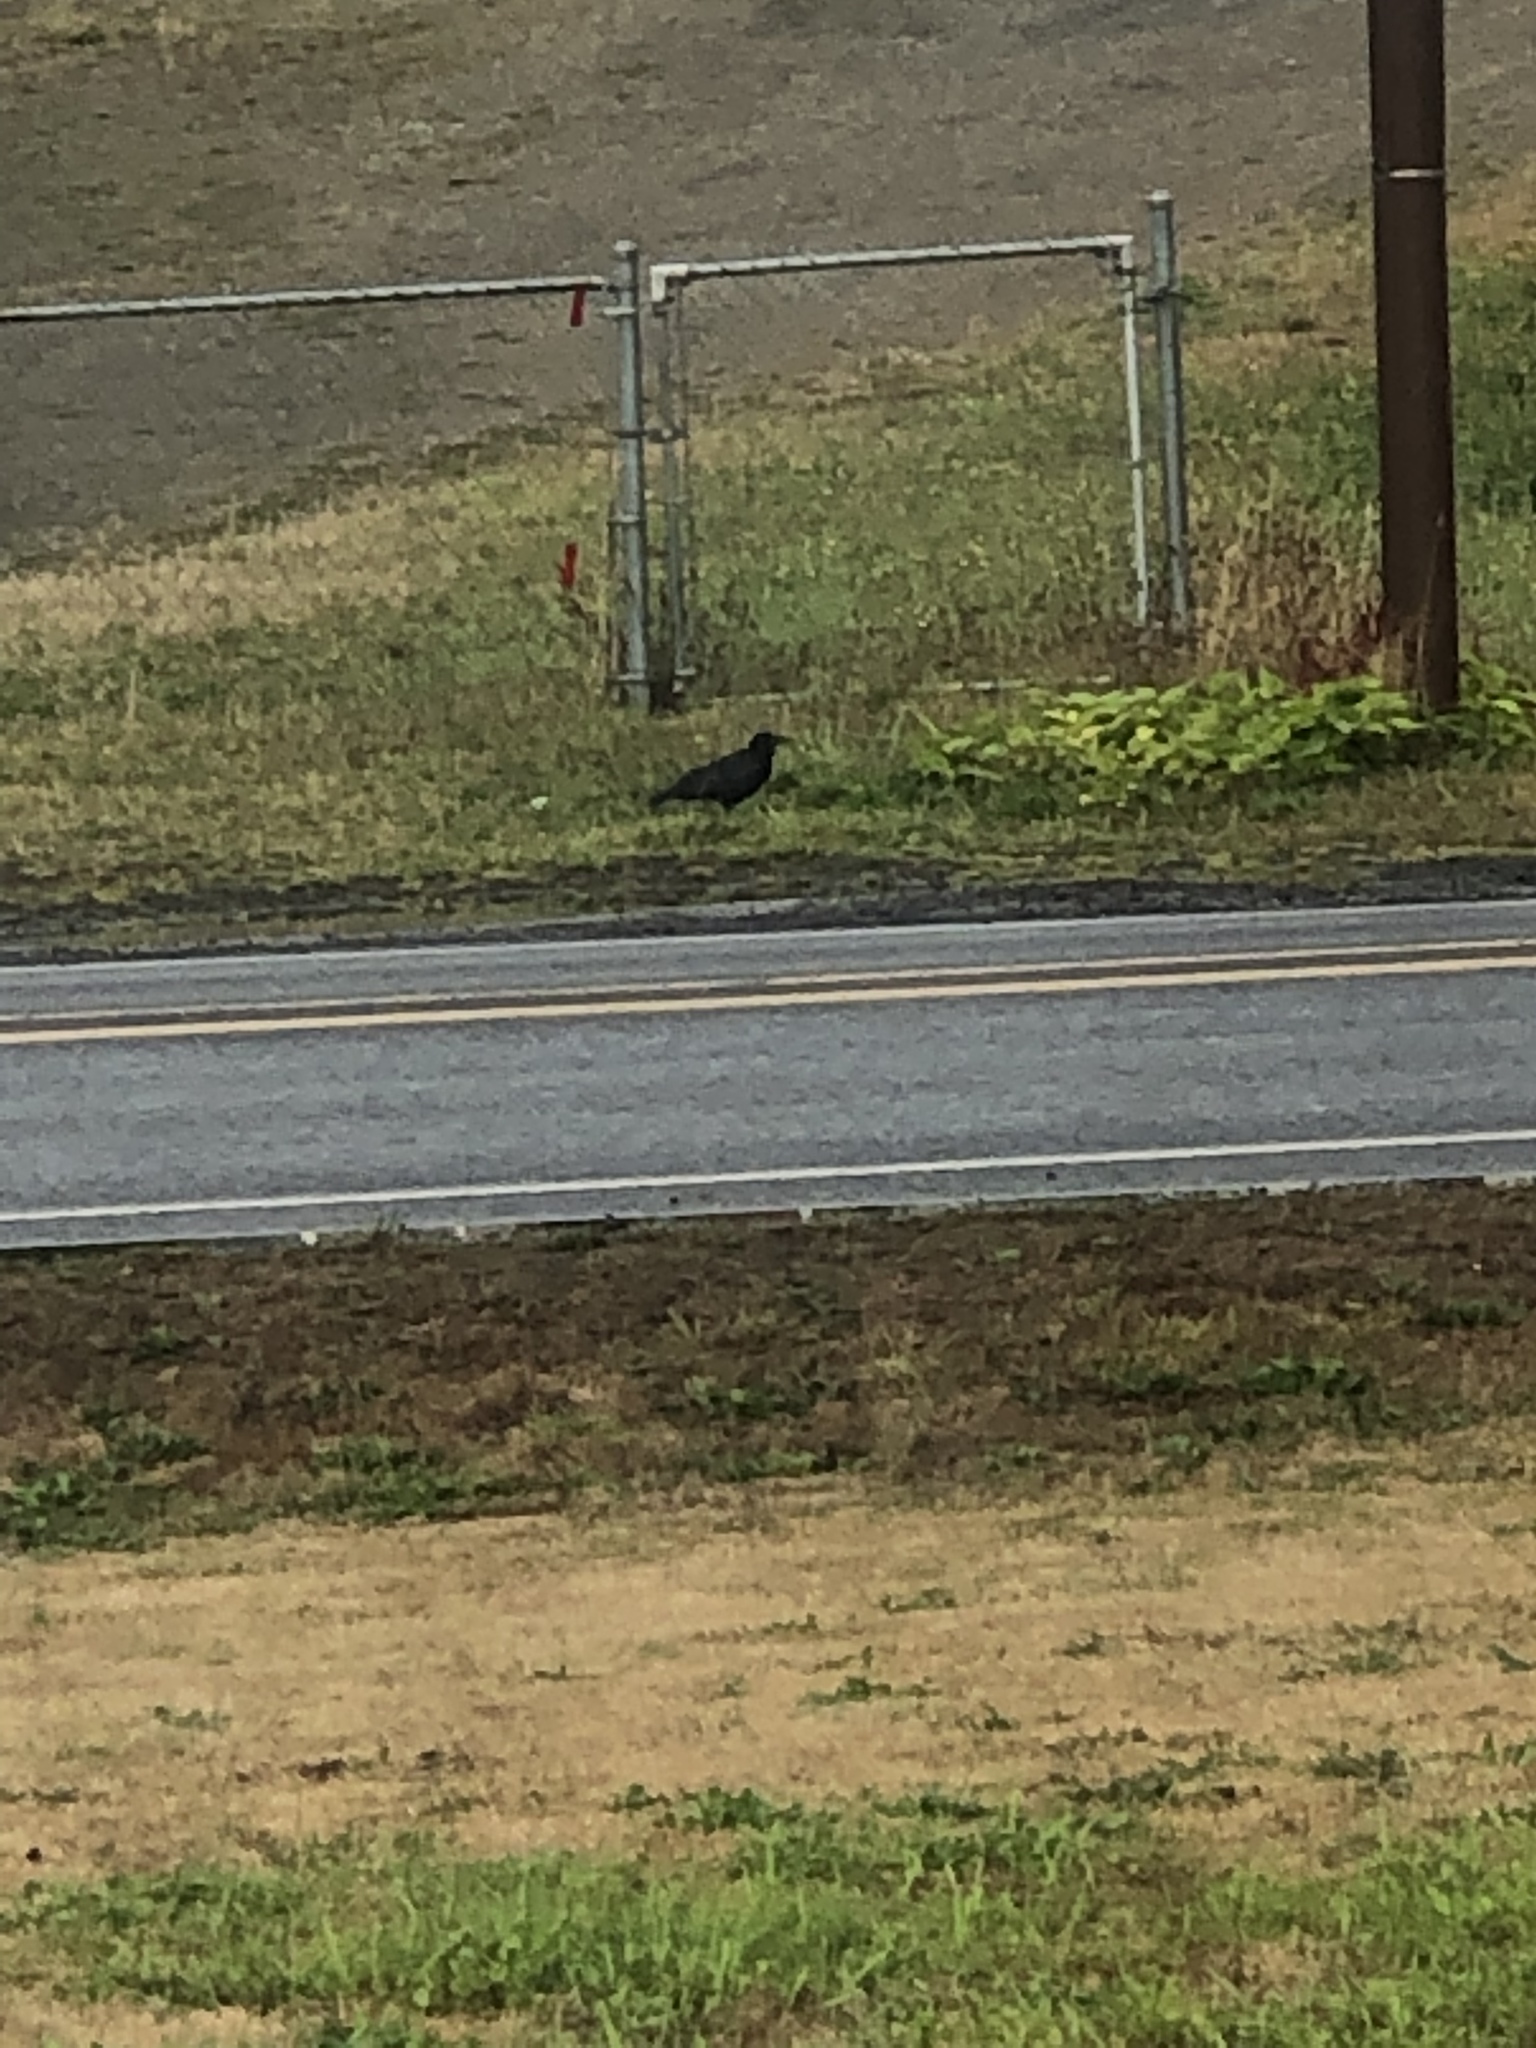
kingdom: Animalia
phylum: Chordata
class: Aves
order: Passeriformes
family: Corvidae
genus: Corvus
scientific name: Corvus brachyrhynchos
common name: American crow
